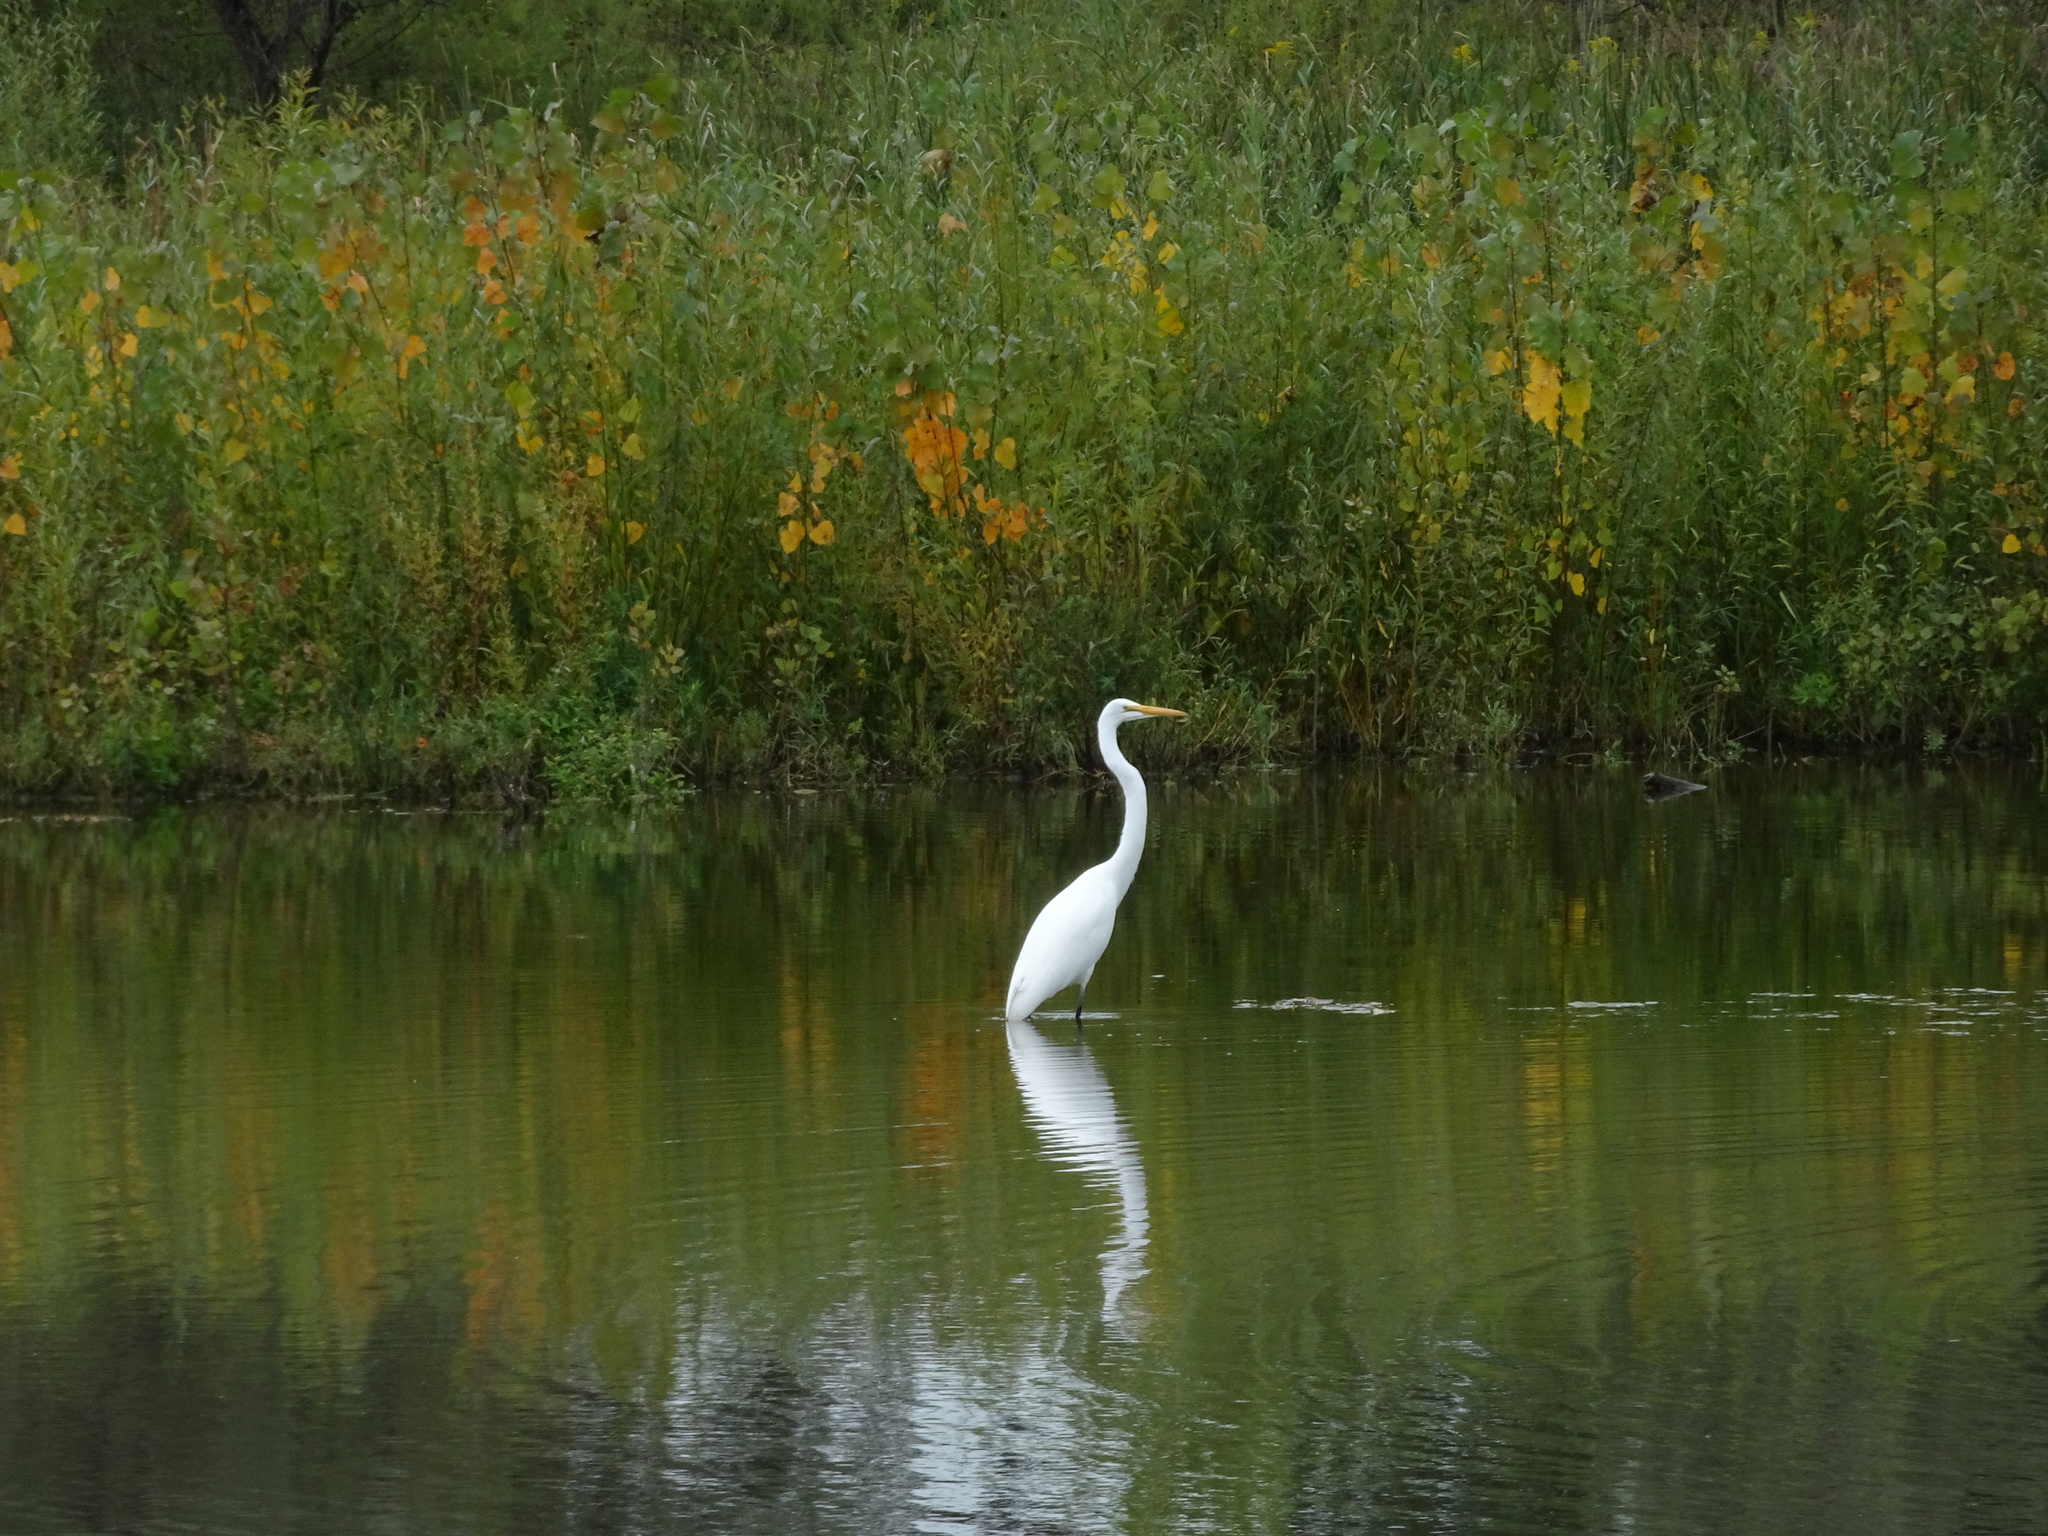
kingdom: Animalia
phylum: Chordata
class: Aves
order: Pelecaniformes
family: Ardeidae
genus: Ardea
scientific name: Ardea alba
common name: Great egret
